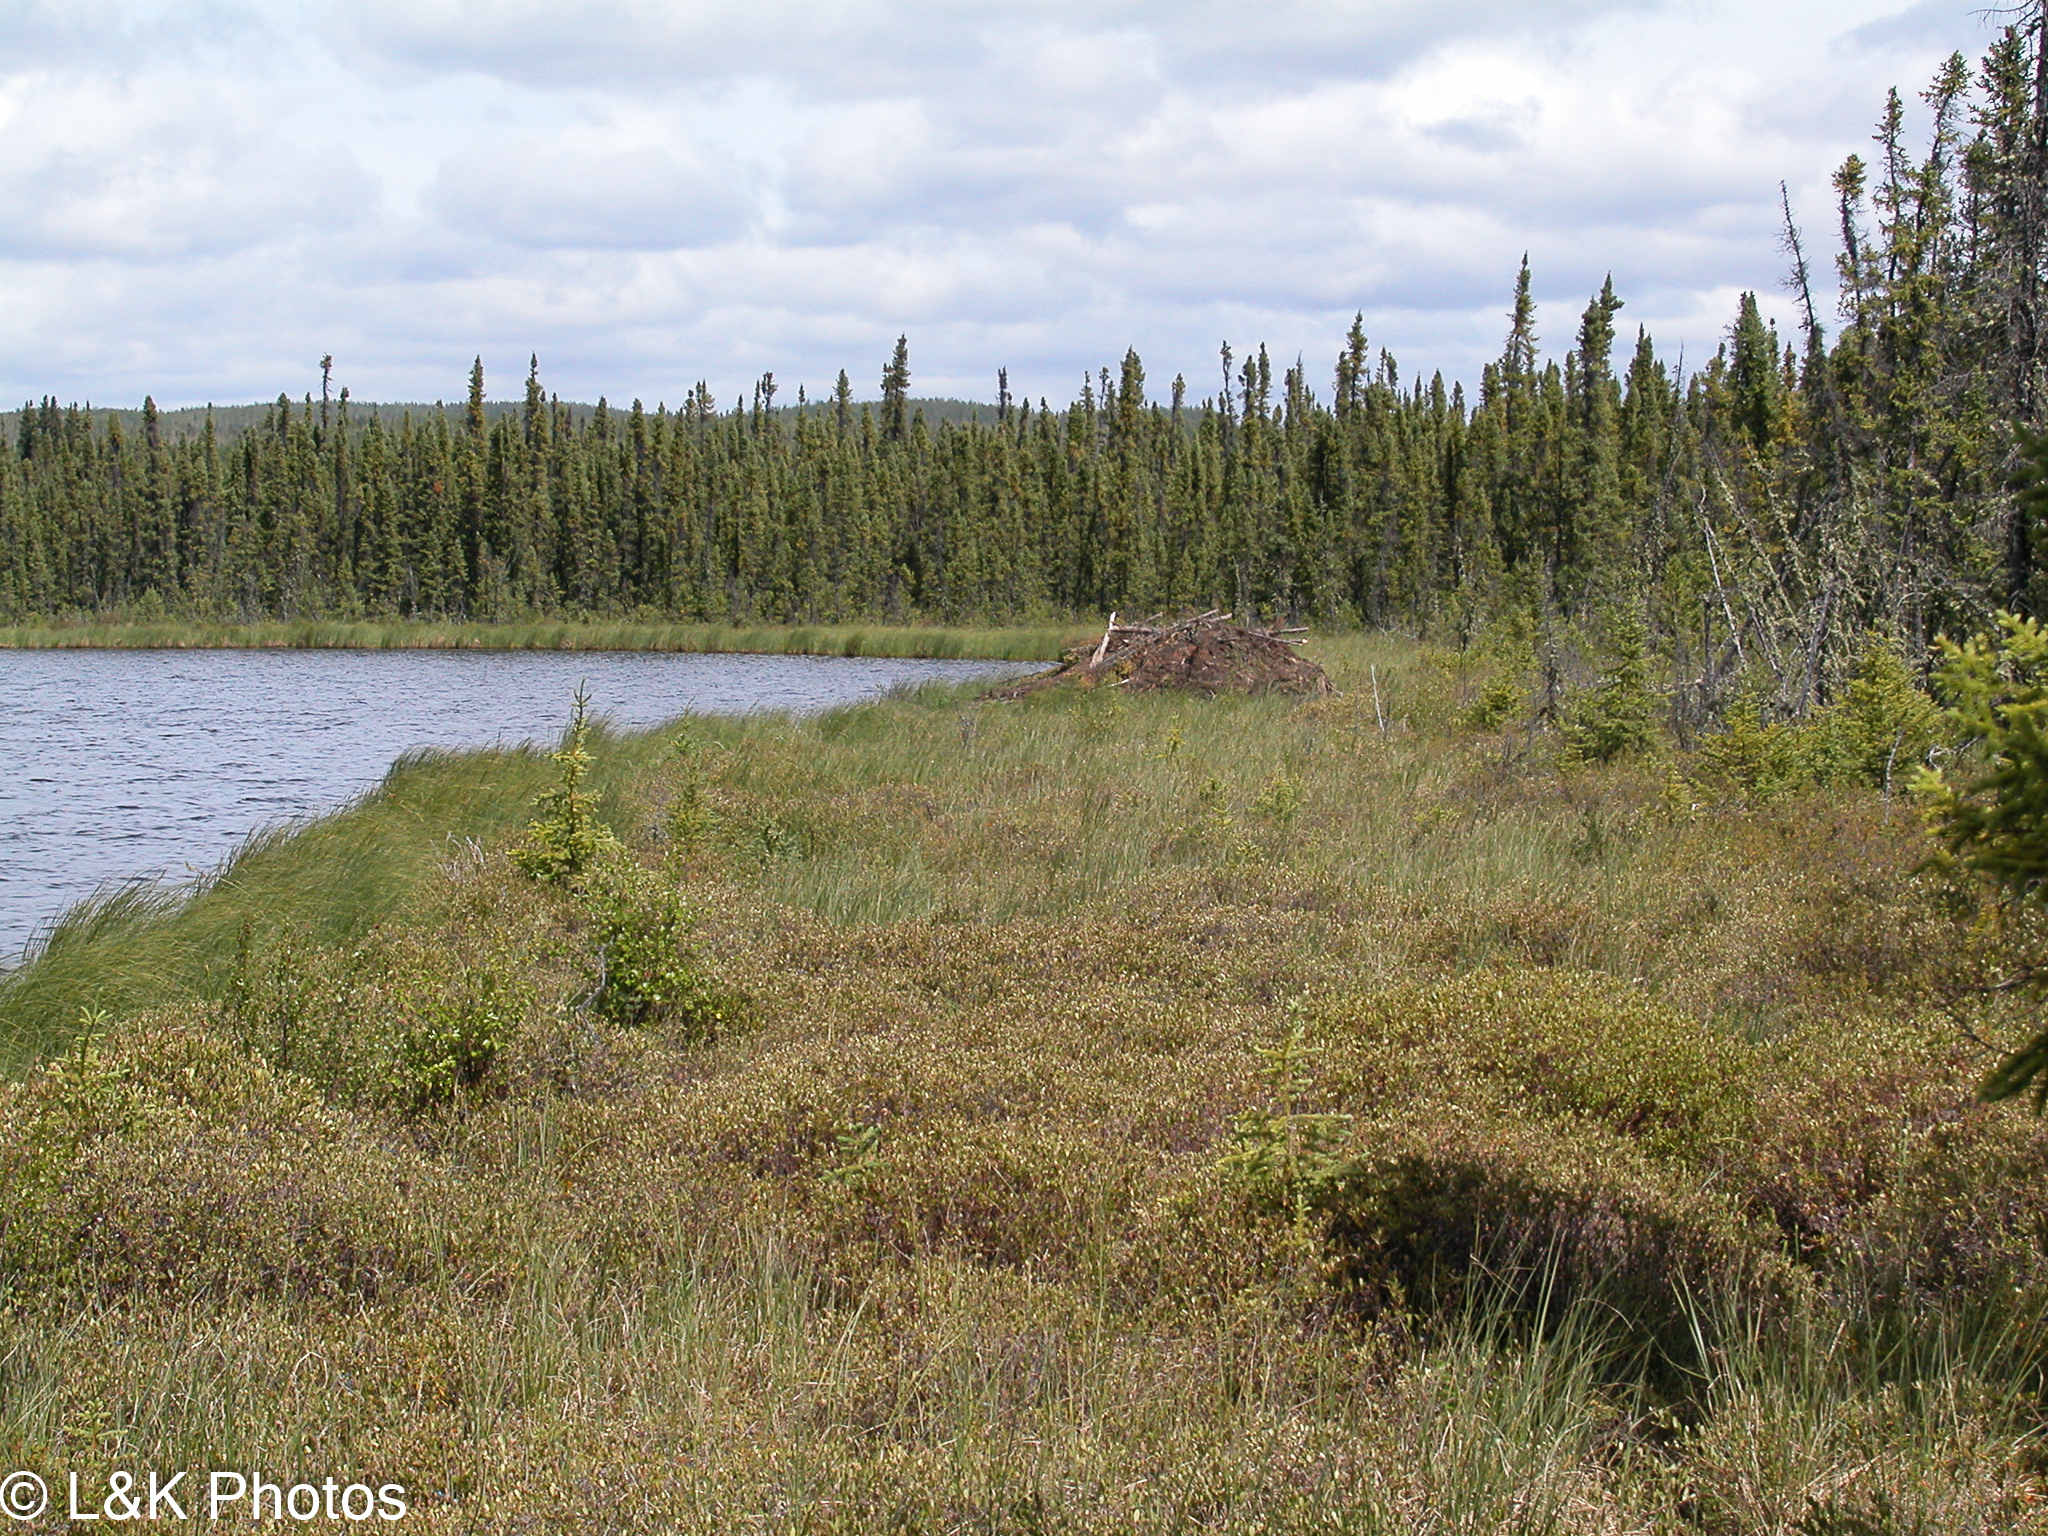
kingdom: Animalia
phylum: Chordata
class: Mammalia
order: Rodentia
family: Castoridae
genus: Castor
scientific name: Castor canadensis
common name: American beaver
